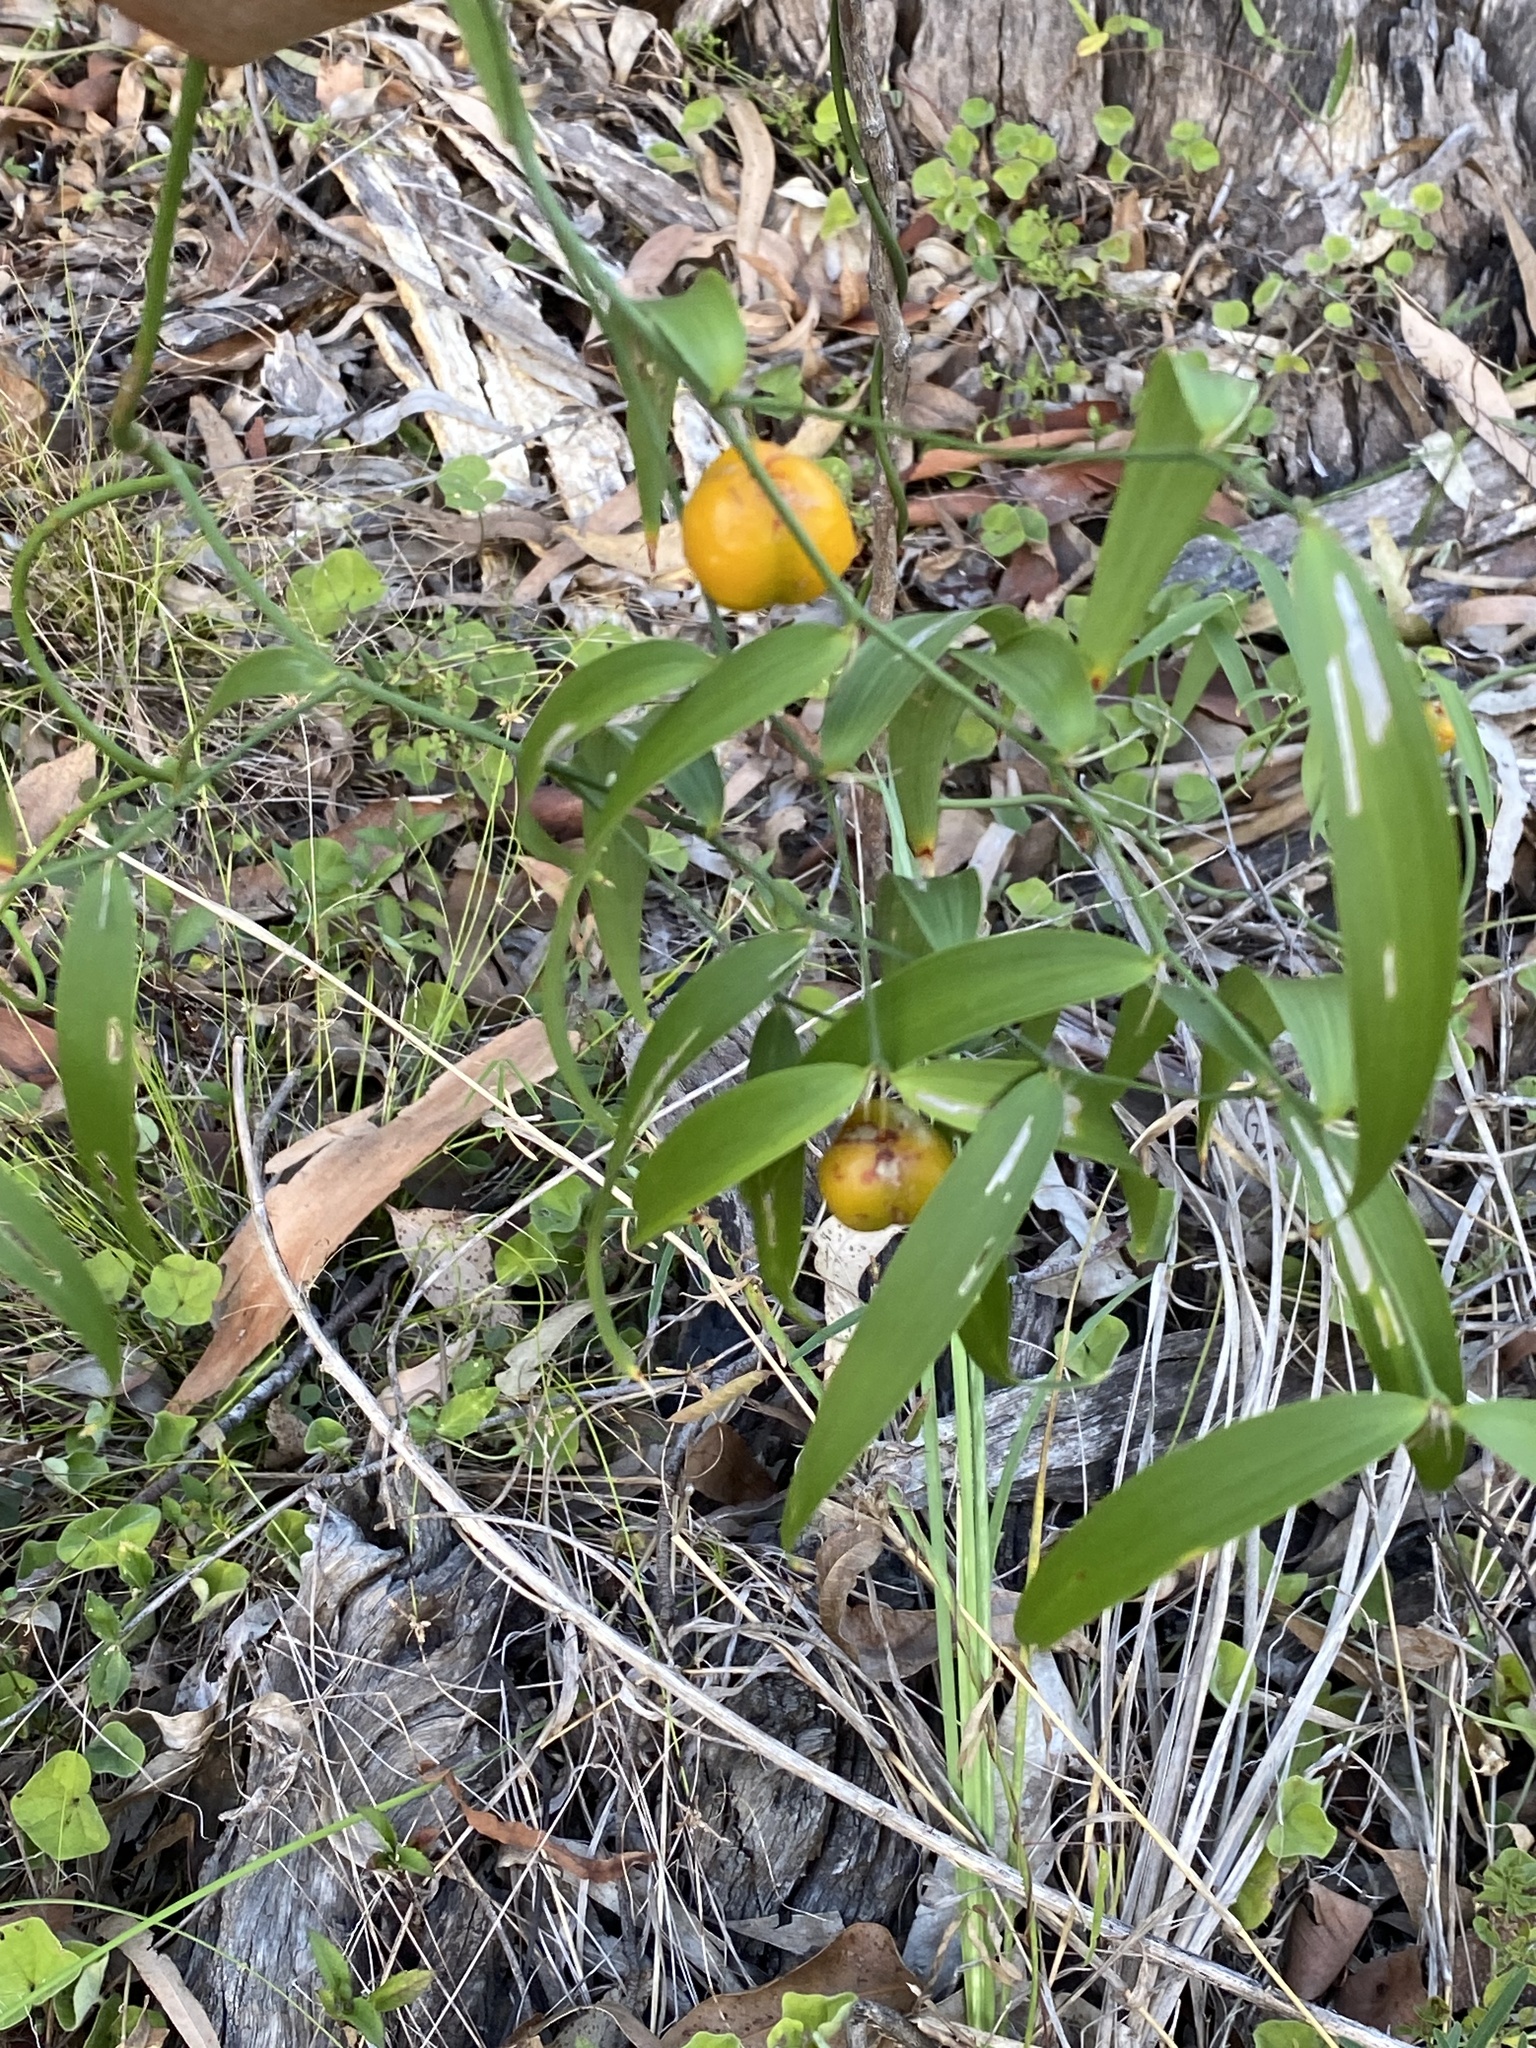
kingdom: Plantae
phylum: Tracheophyta
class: Liliopsida
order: Asparagales
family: Asparagaceae
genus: Eustrephus
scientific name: Eustrephus latifolius
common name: Orangevine
